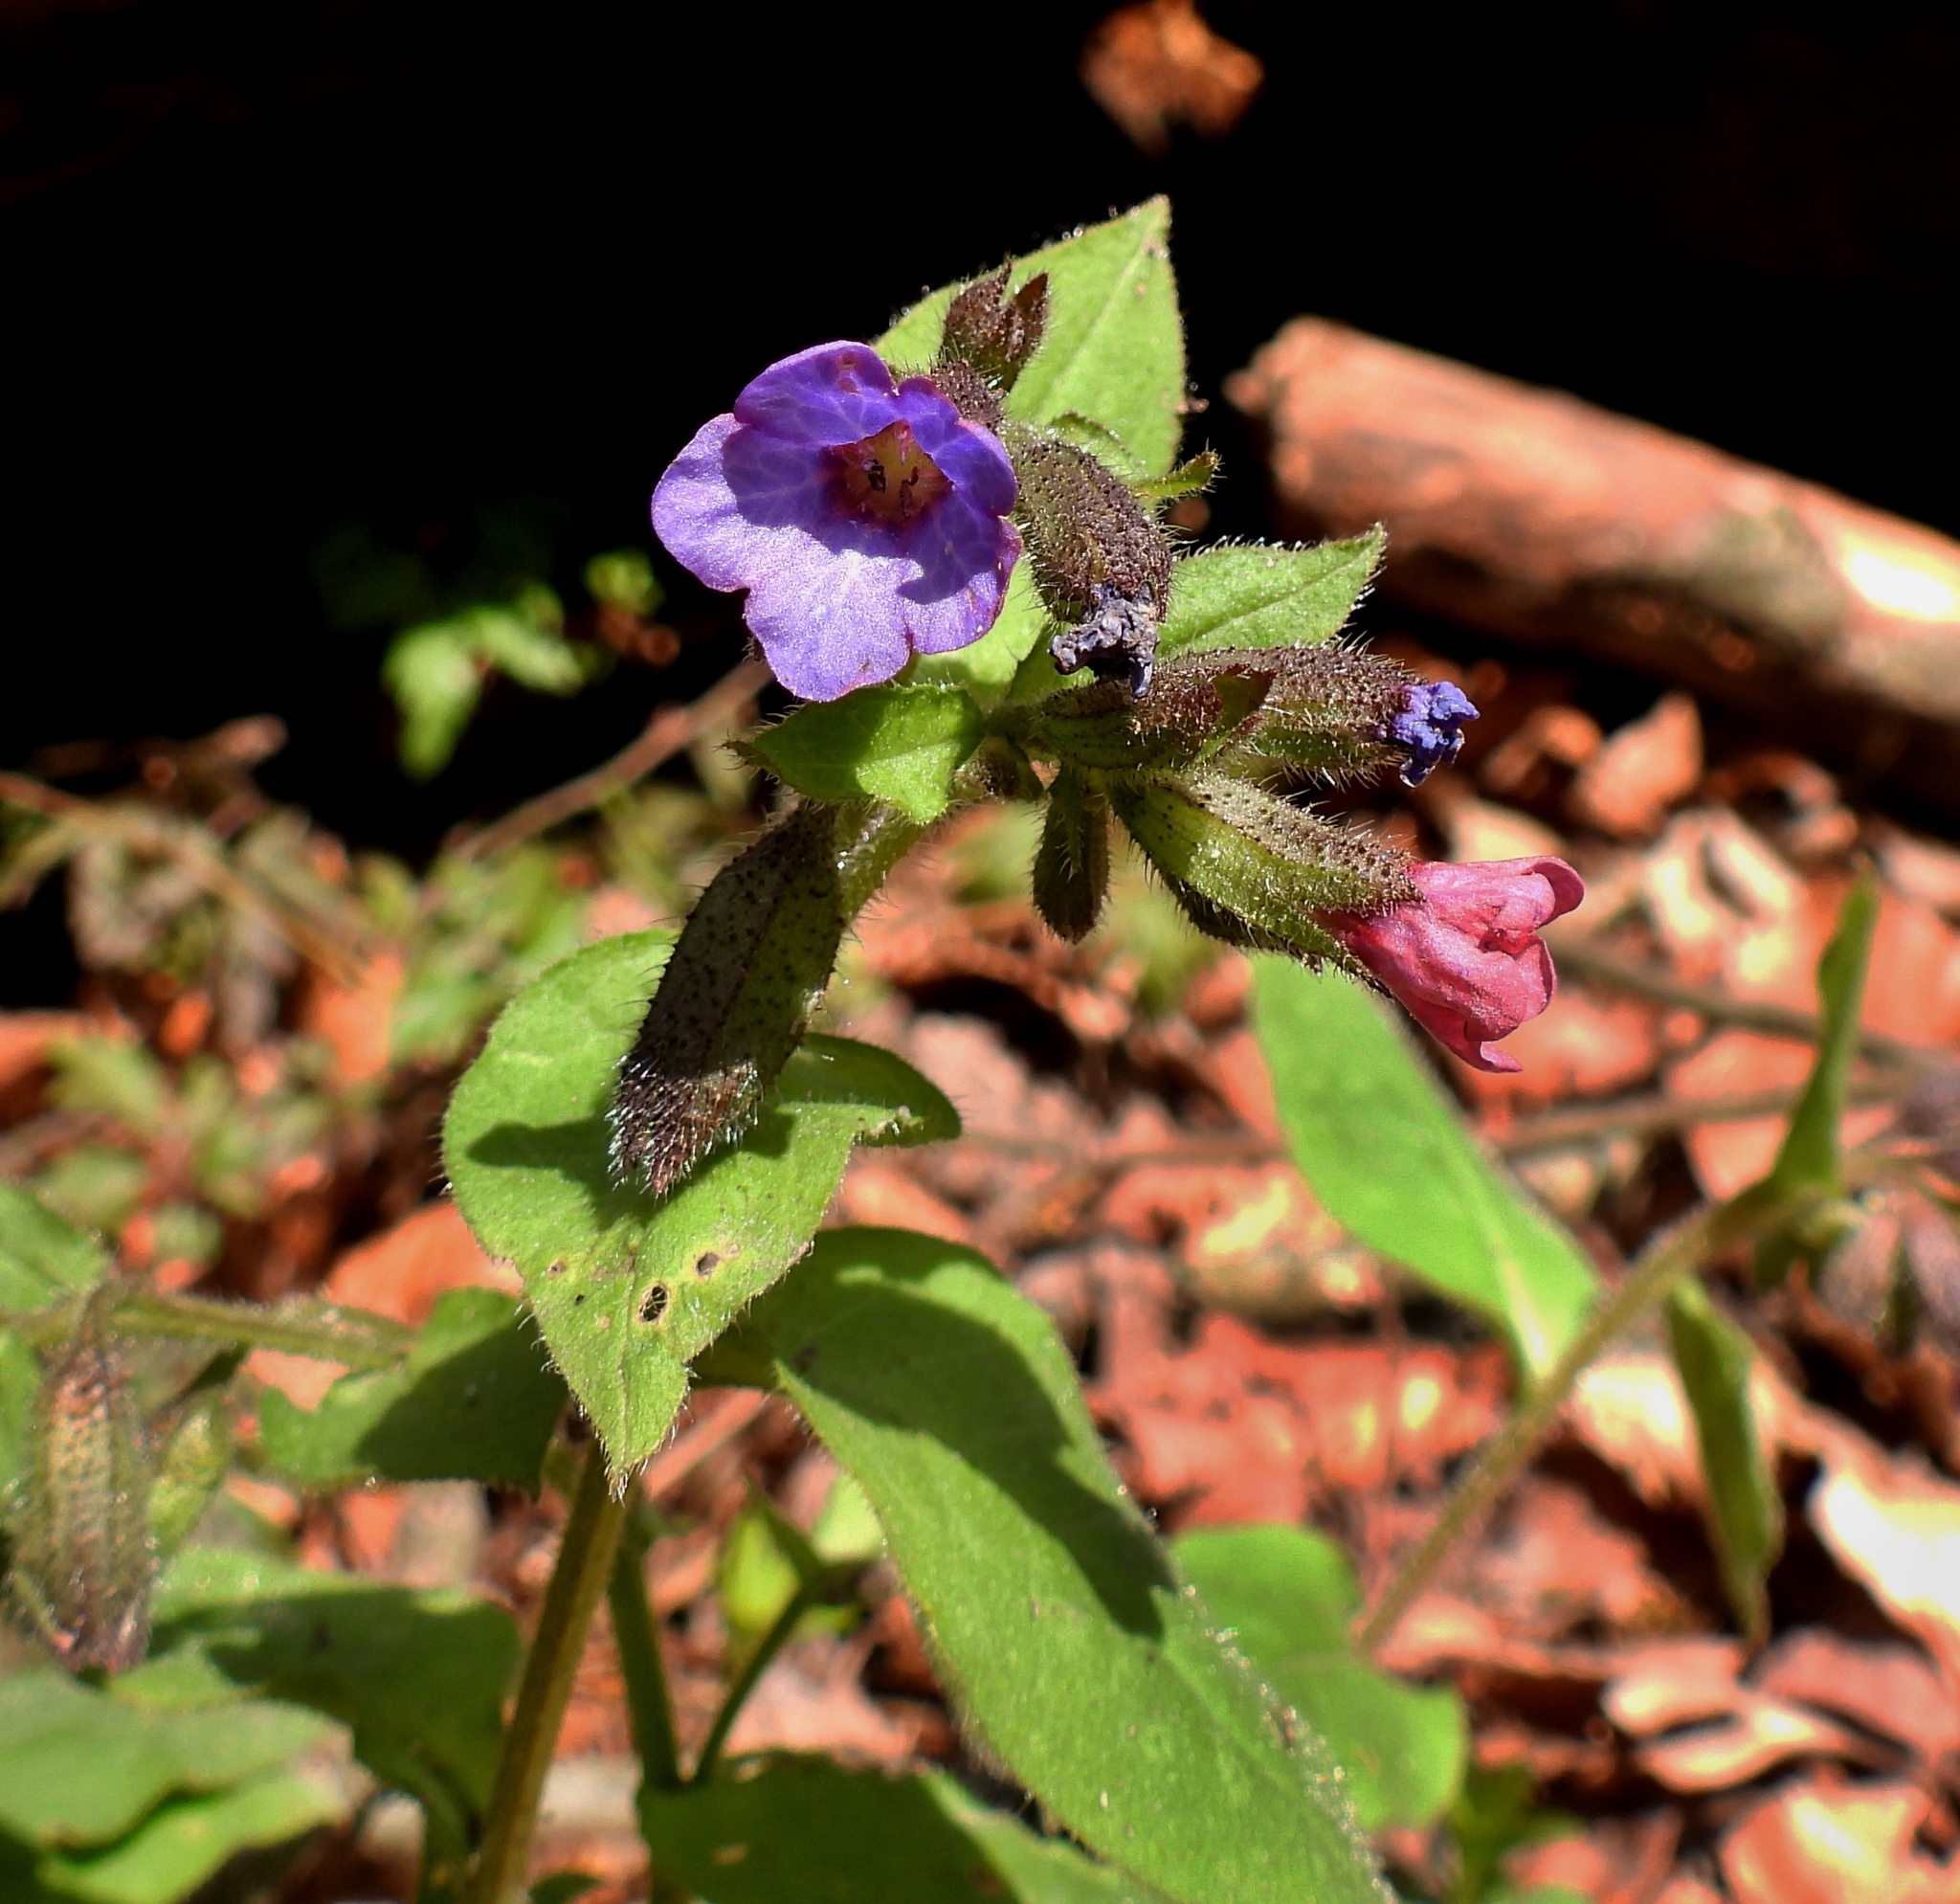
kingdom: Plantae
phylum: Tracheophyta
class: Magnoliopsida
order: Boraginales
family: Boraginaceae
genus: Pulmonaria
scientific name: Pulmonaria obscura
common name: Suffolk lungwort
